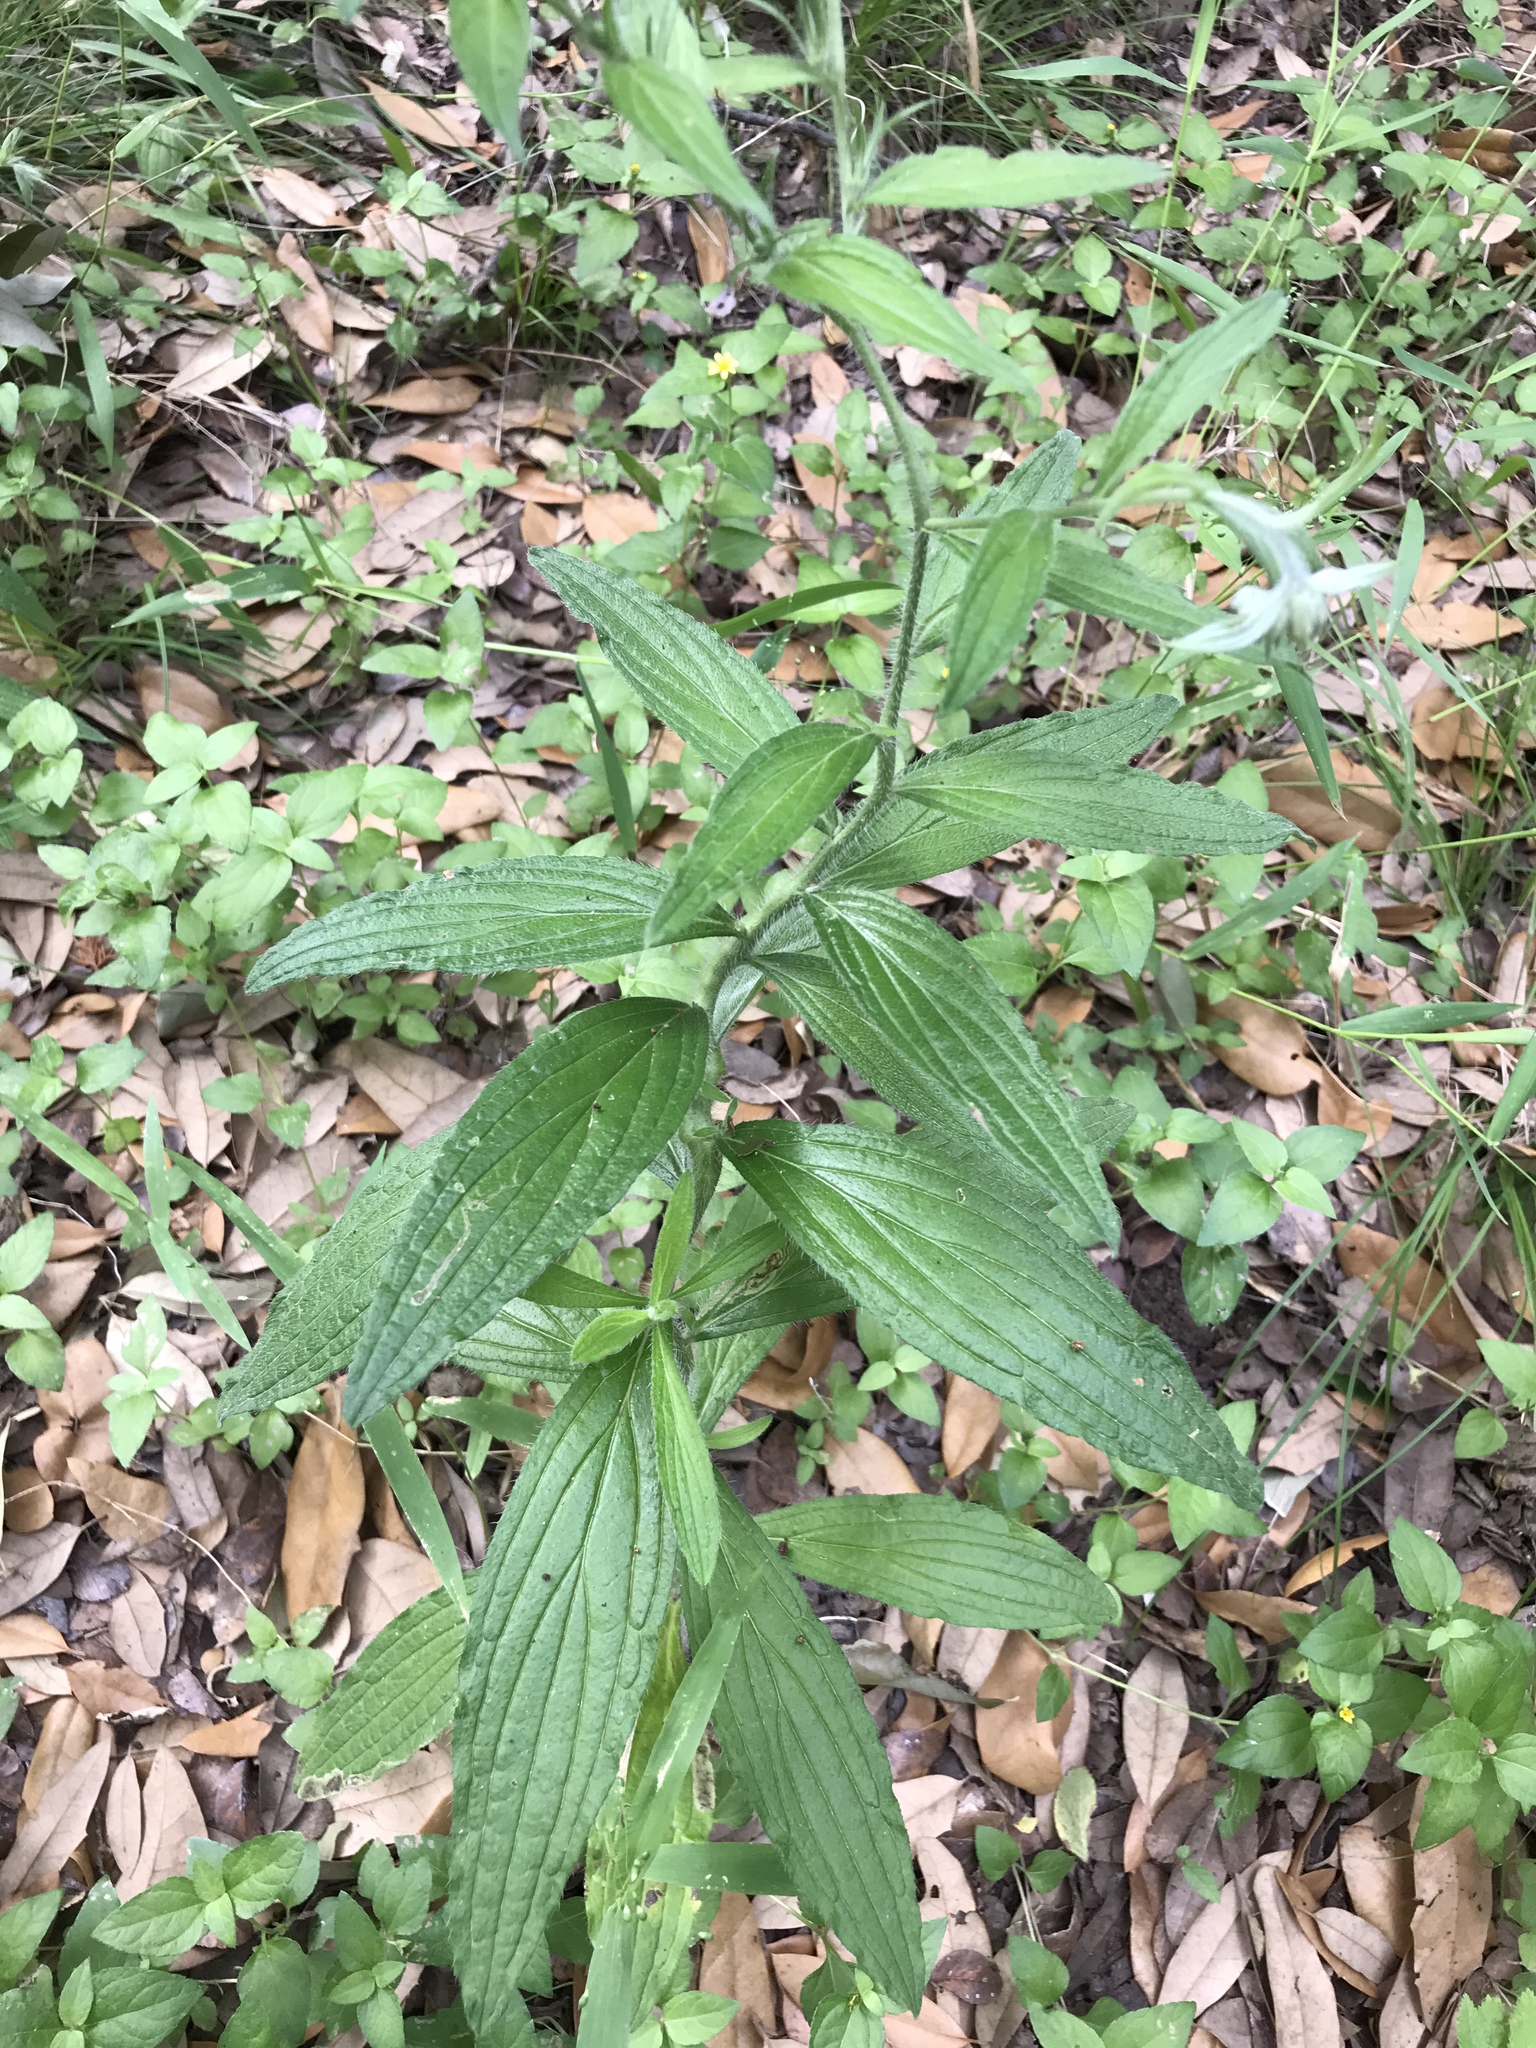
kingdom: Plantae
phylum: Tracheophyta
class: Magnoliopsida
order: Boraginales
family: Boraginaceae
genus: Lithospermum
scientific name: Lithospermum caroliniense
